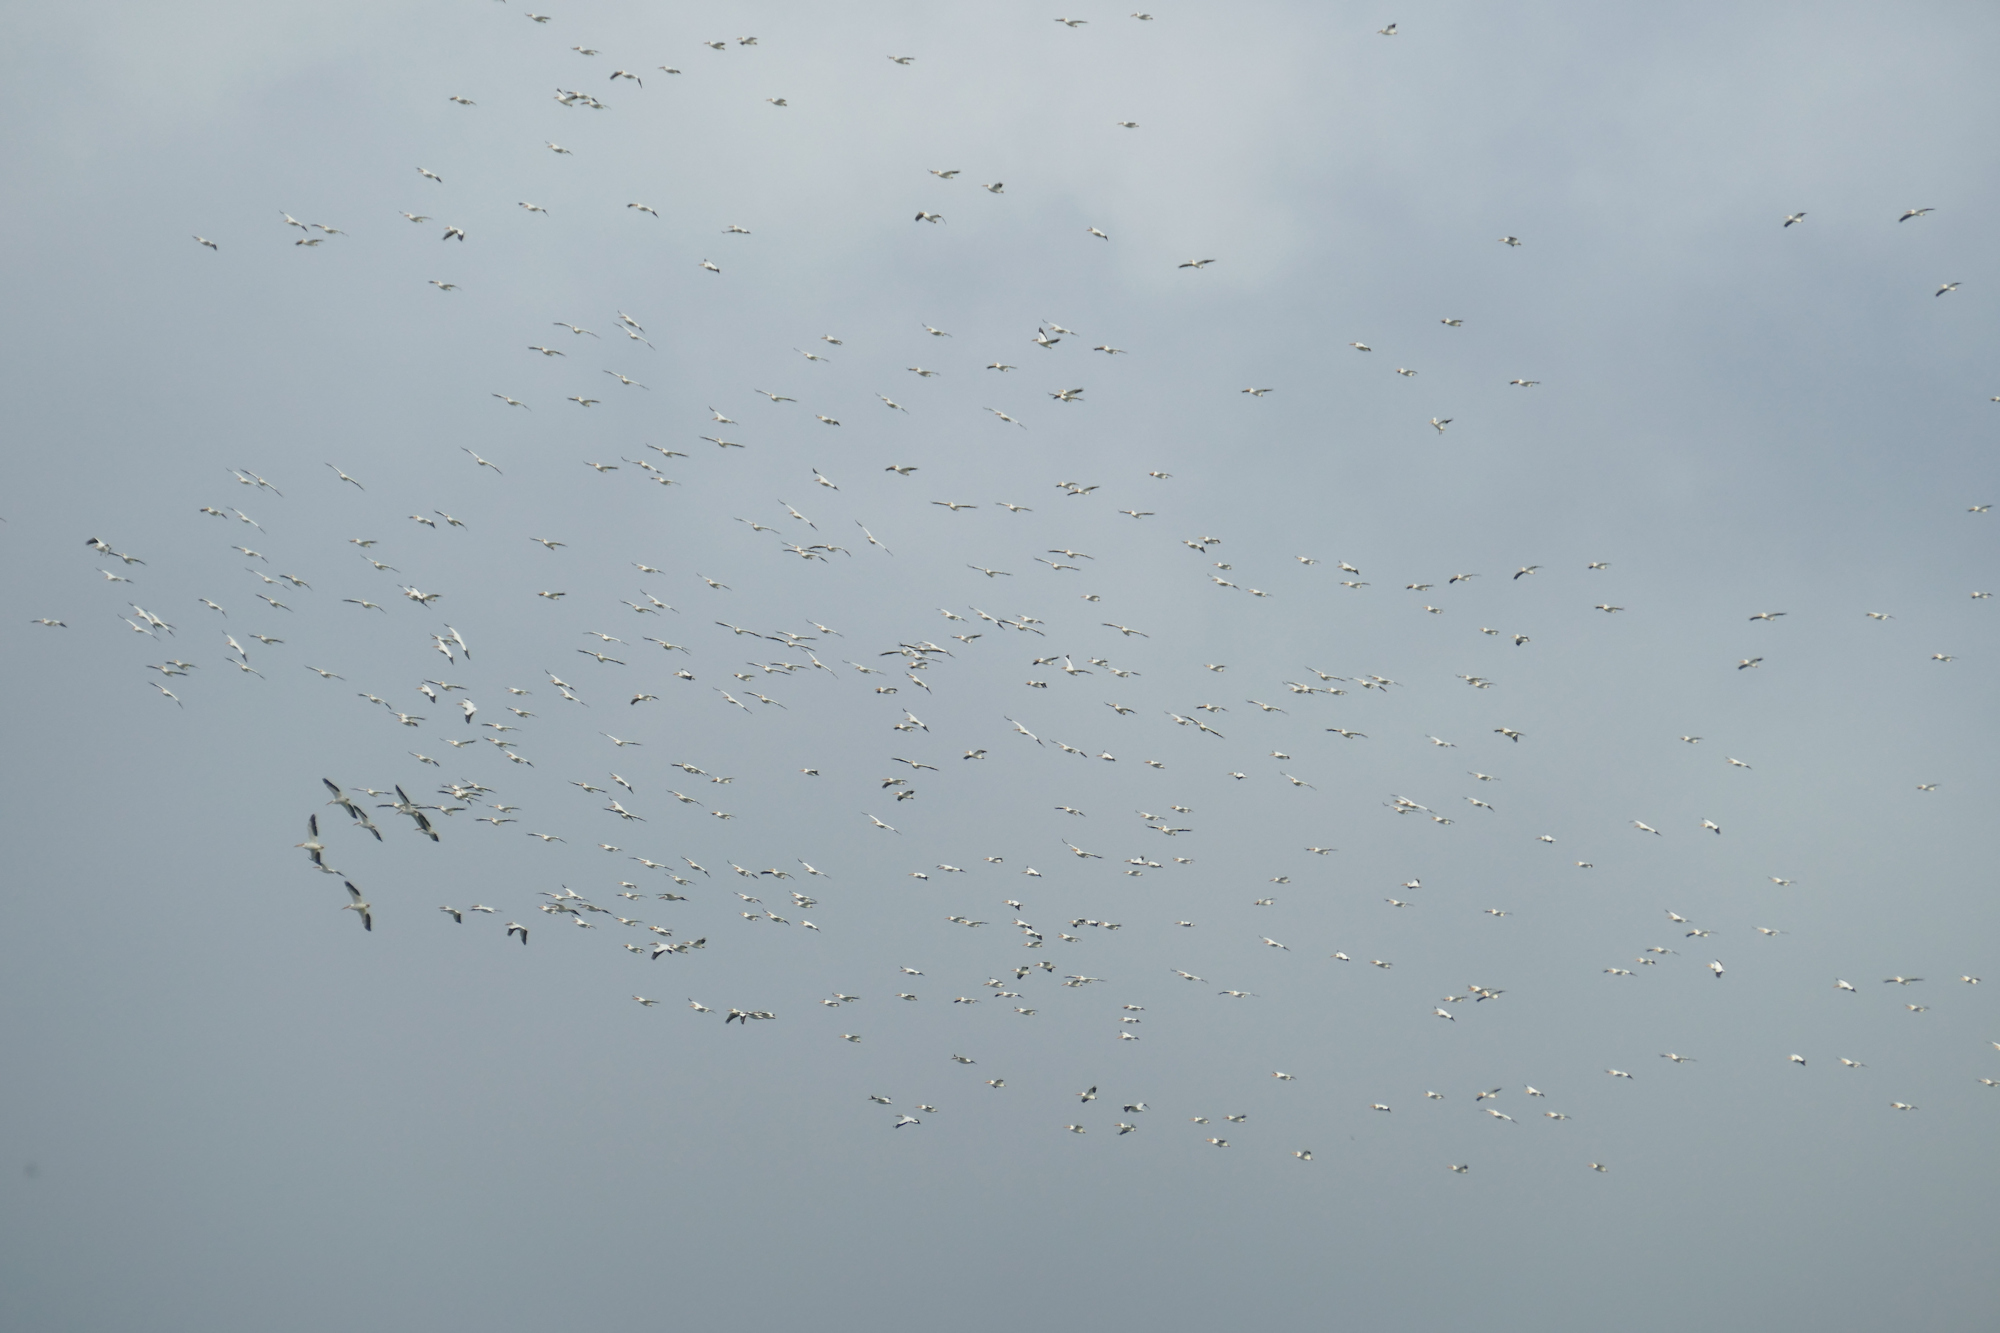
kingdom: Animalia
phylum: Chordata
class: Aves
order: Pelecaniformes
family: Pelecanidae
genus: Pelecanus
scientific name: Pelecanus erythrorhynchos
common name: American white pelican
